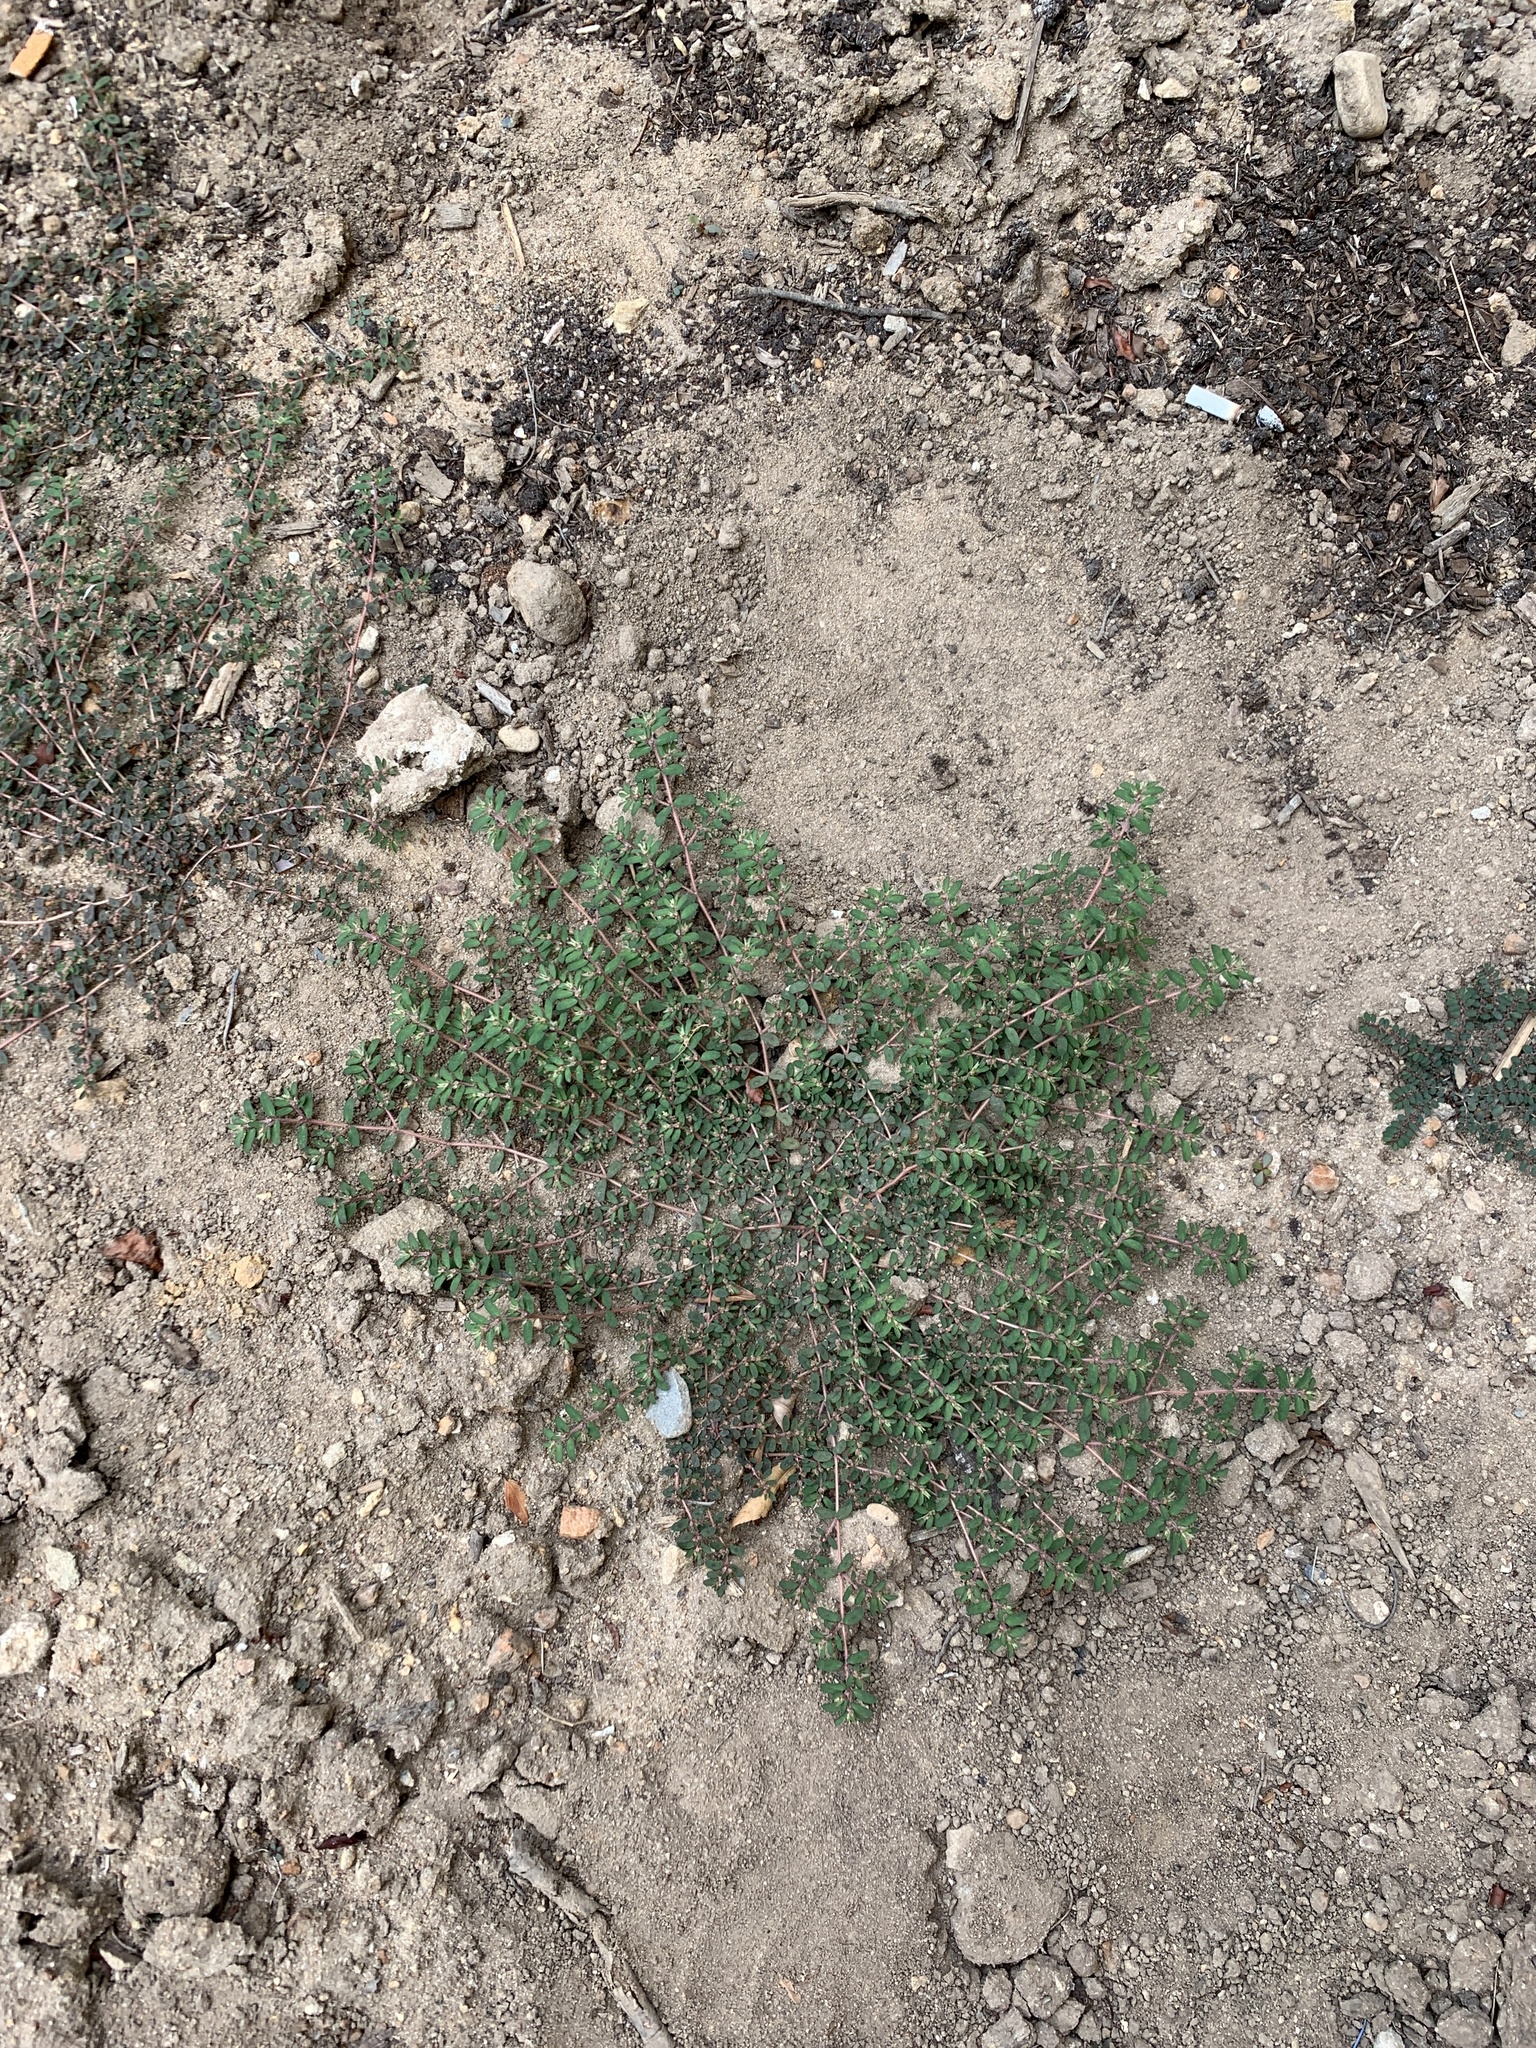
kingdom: Plantae
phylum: Tracheophyta
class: Magnoliopsida
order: Malpighiales
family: Euphorbiaceae
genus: Euphorbia
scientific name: Euphorbia maculata
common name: Spotted spurge
